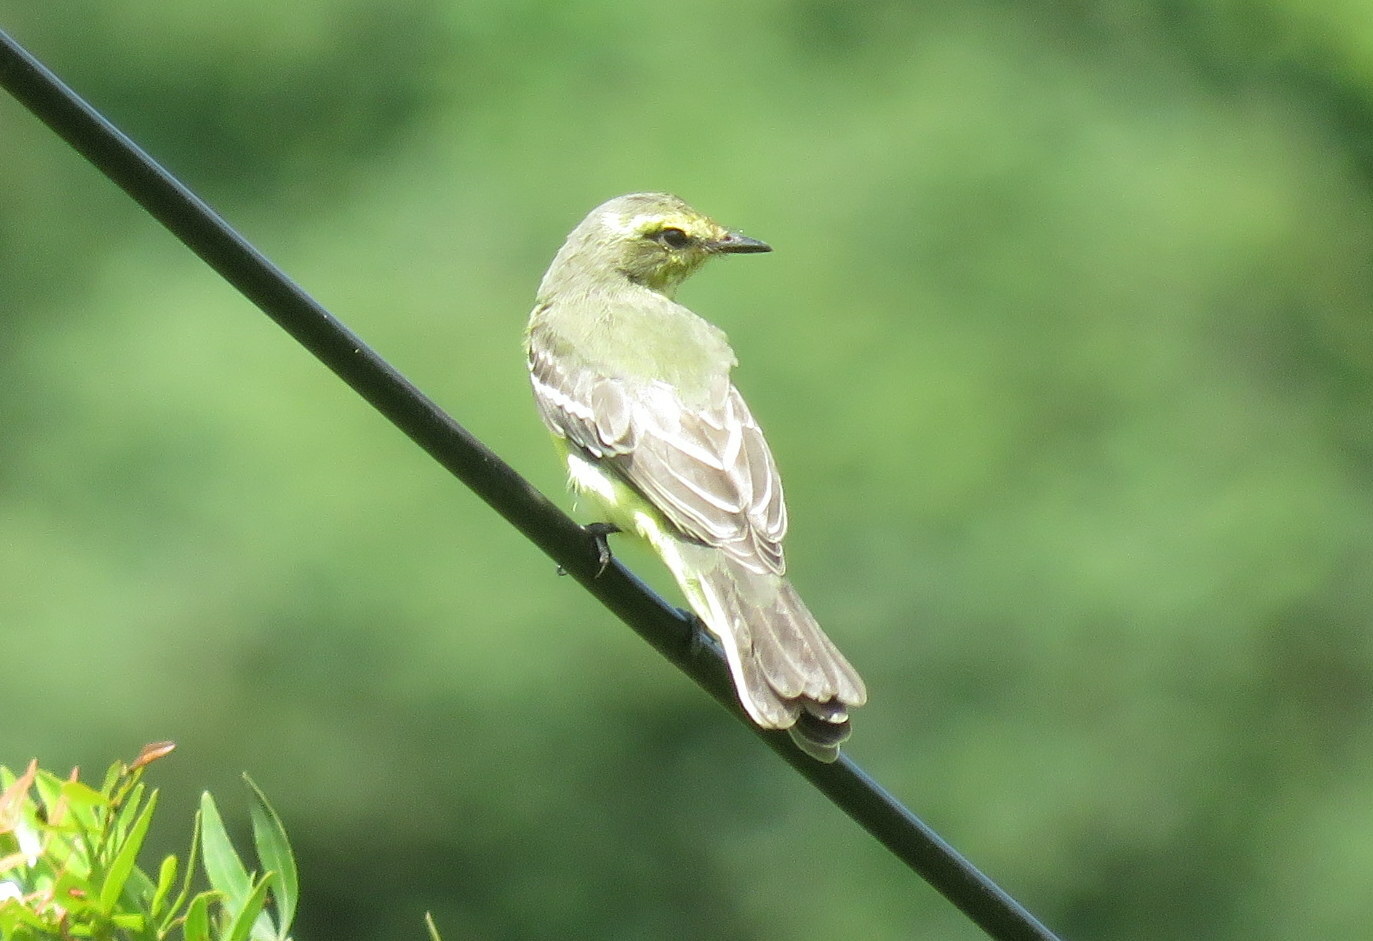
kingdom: Animalia
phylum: Chordata
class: Aves
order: Passeriformes
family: Tyrannidae
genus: Satrapa
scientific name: Satrapa icterophrys
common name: Yellow-browed tyrant
